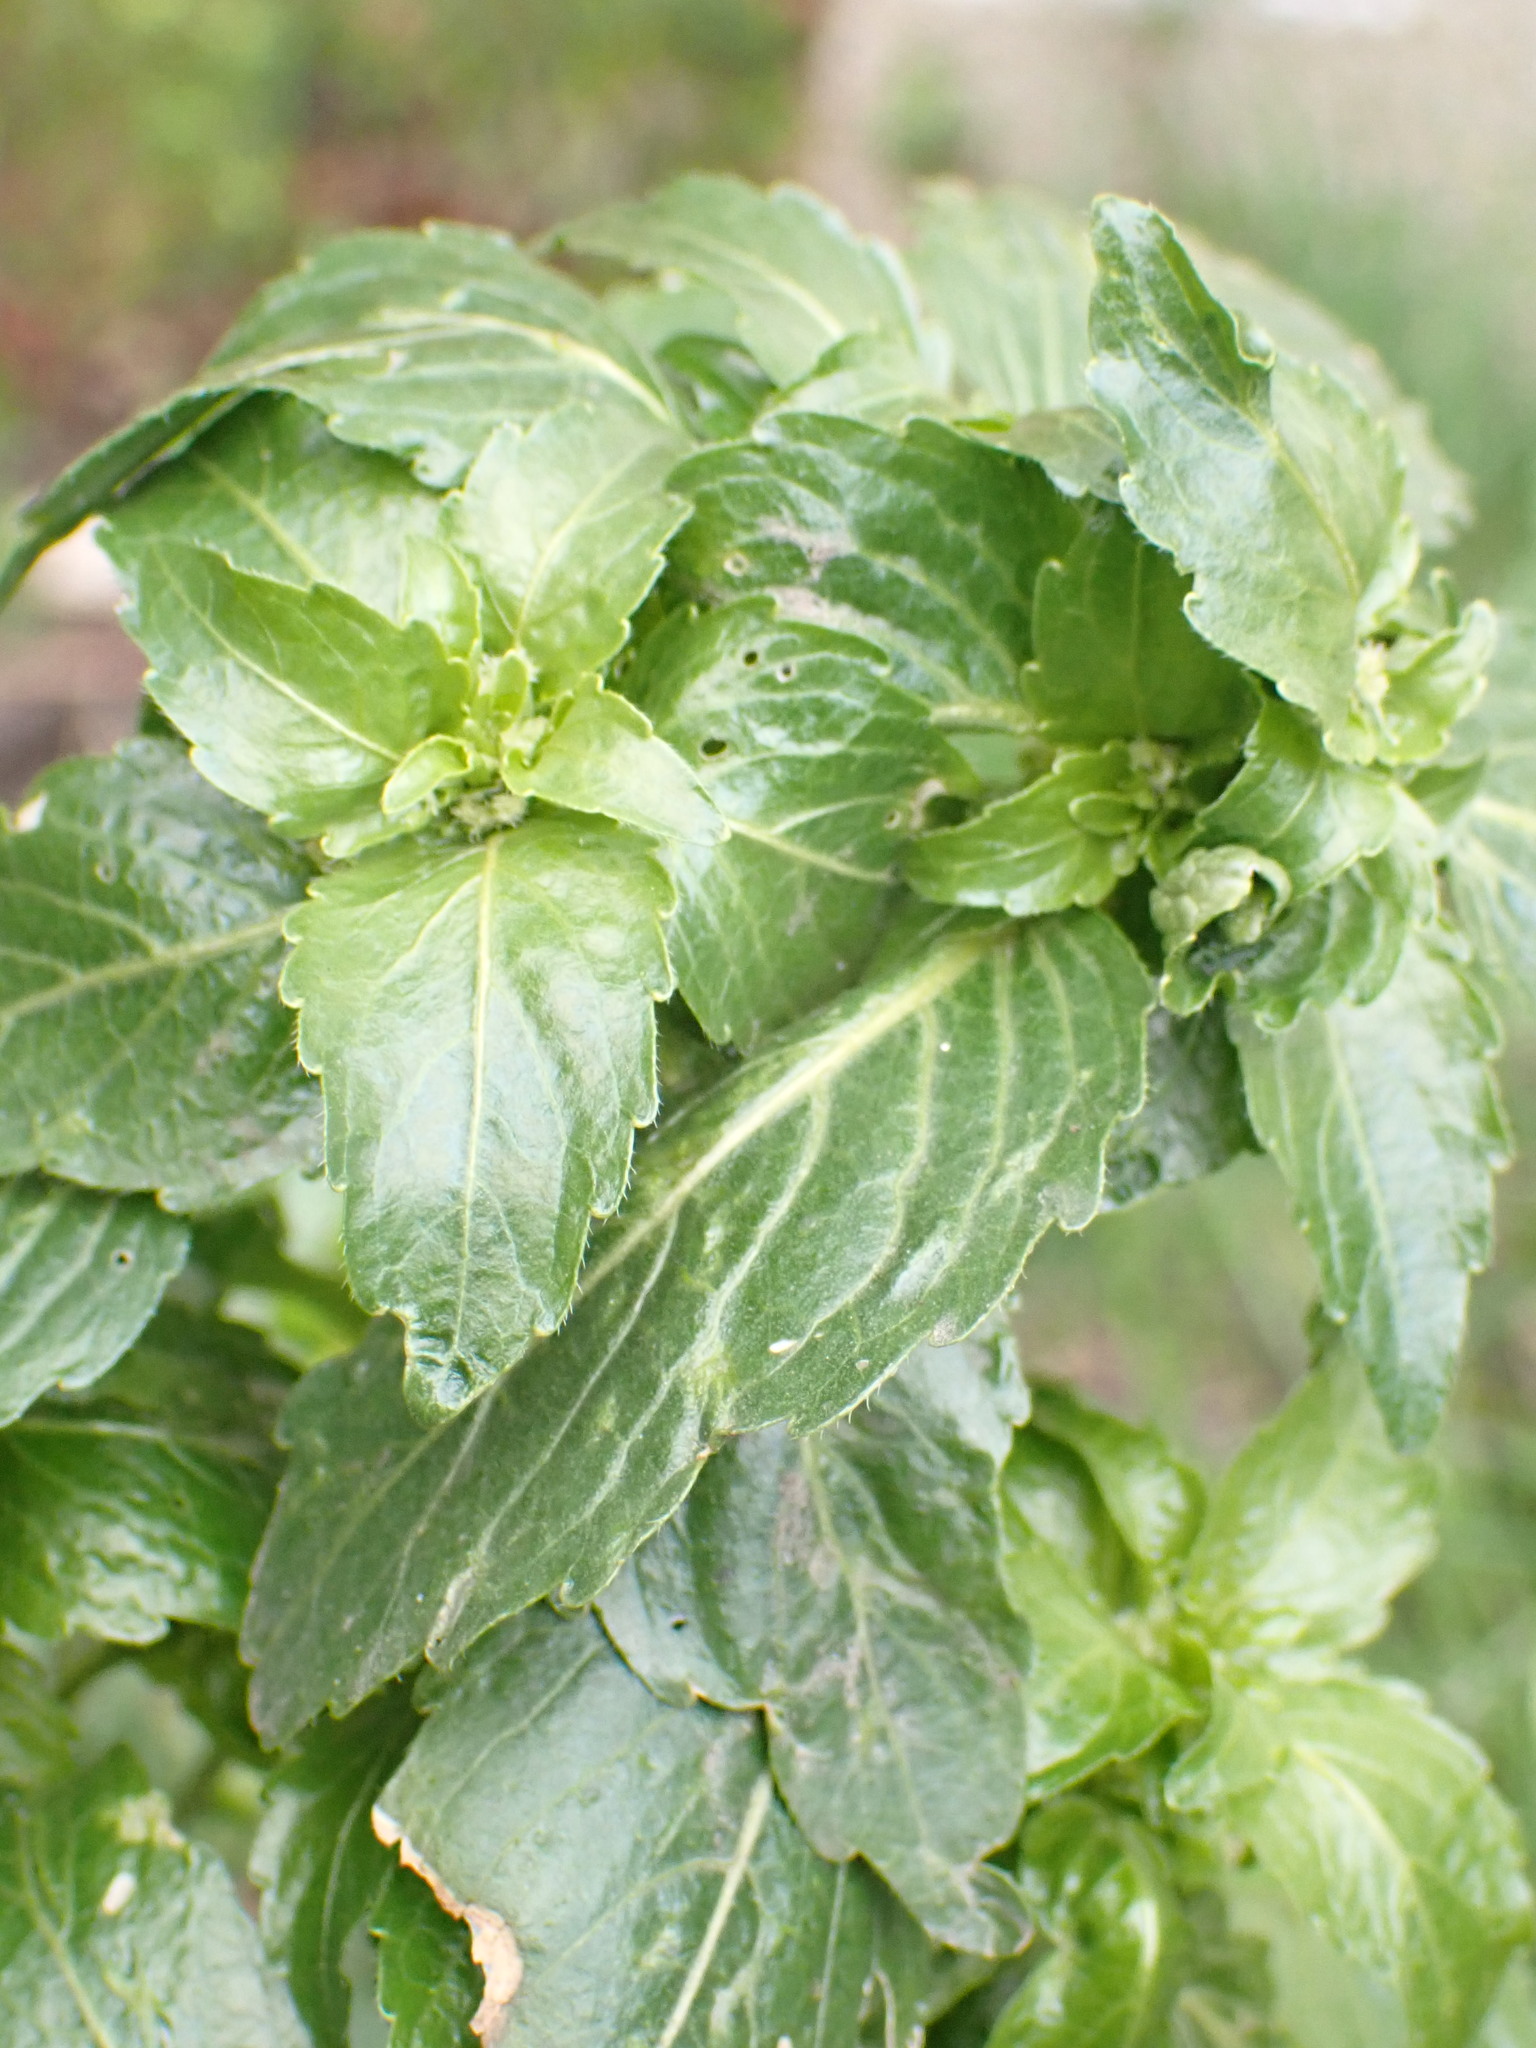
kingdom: Plantae
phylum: Tracheophyta
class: Magnoliopsida
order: Malpighiales
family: Euphorbiaceae
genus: Mercurialis
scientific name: Mercurialis annua
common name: Annual mercury
